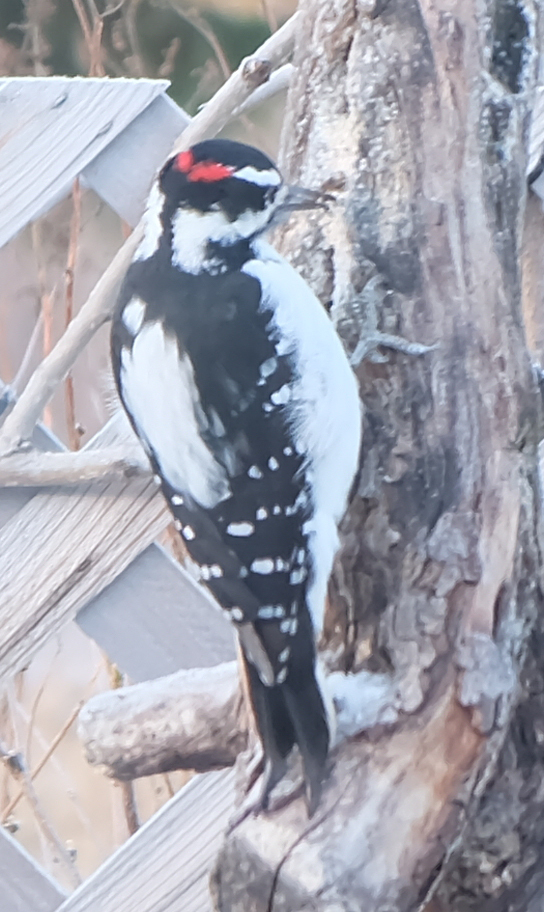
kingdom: Animalia
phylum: Chordata
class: Aves
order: Piciformes
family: Picidae
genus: Leuconotopicus
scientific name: Leuconotopicus villosus
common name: Hairy woodpecker
